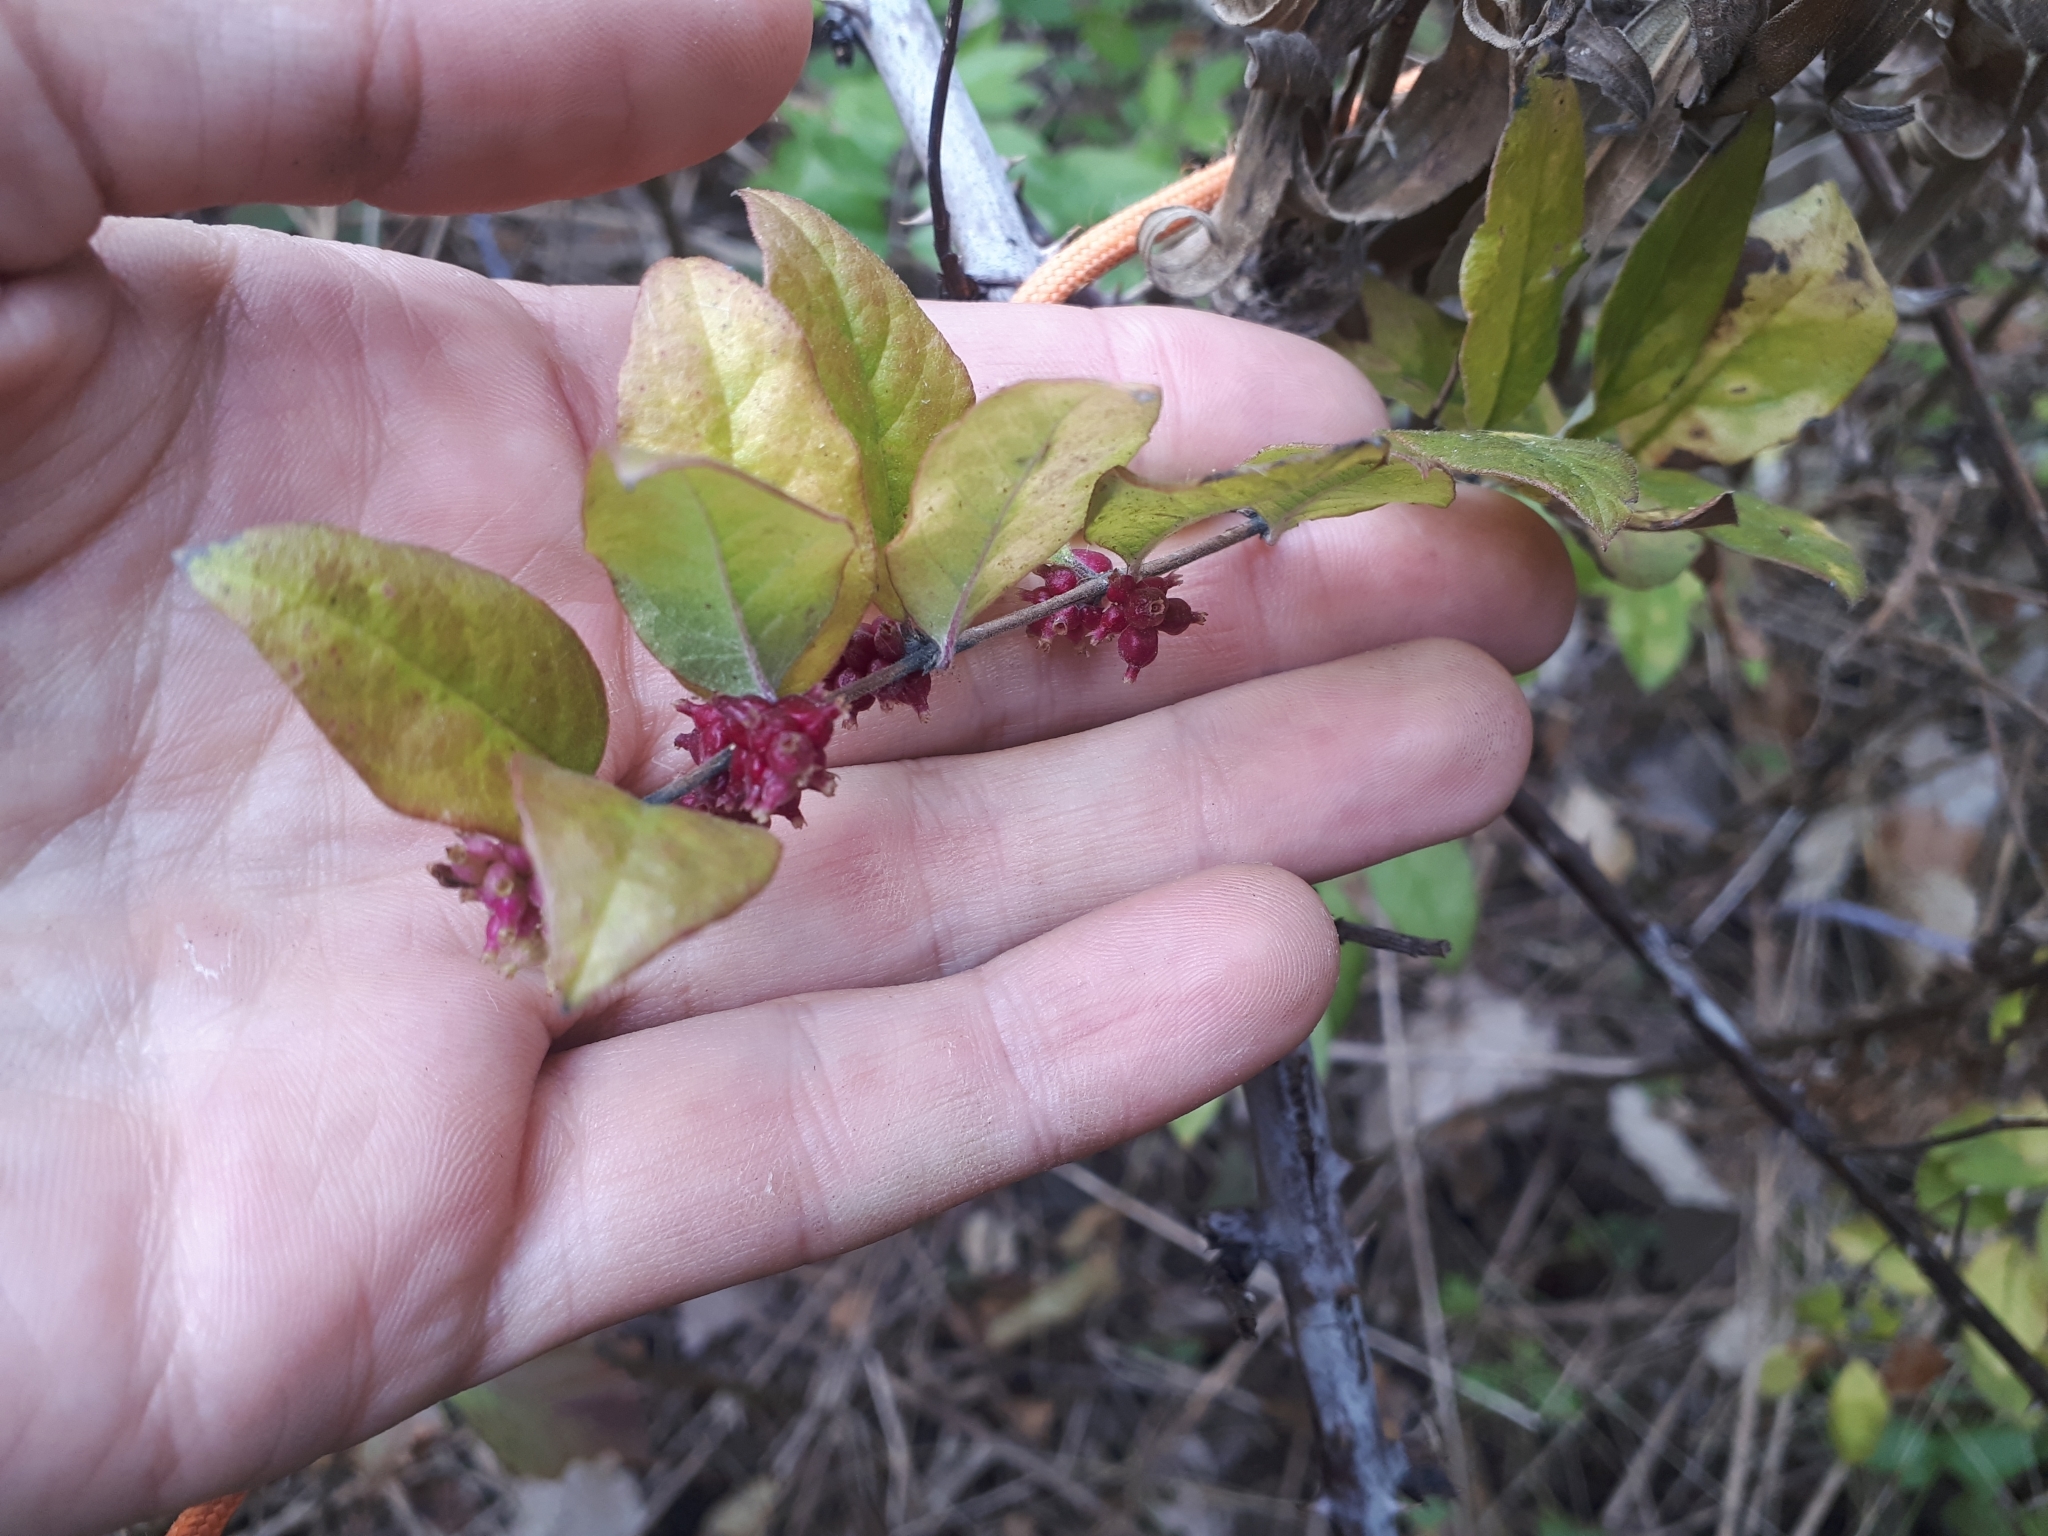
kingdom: Plantae
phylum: Tracheophyta
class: Magnoliopsida
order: Dipsacales
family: Caprifoliaceae
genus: Symphoricarpos
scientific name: Symphoricarpos orbiculatus
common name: Coralberry
